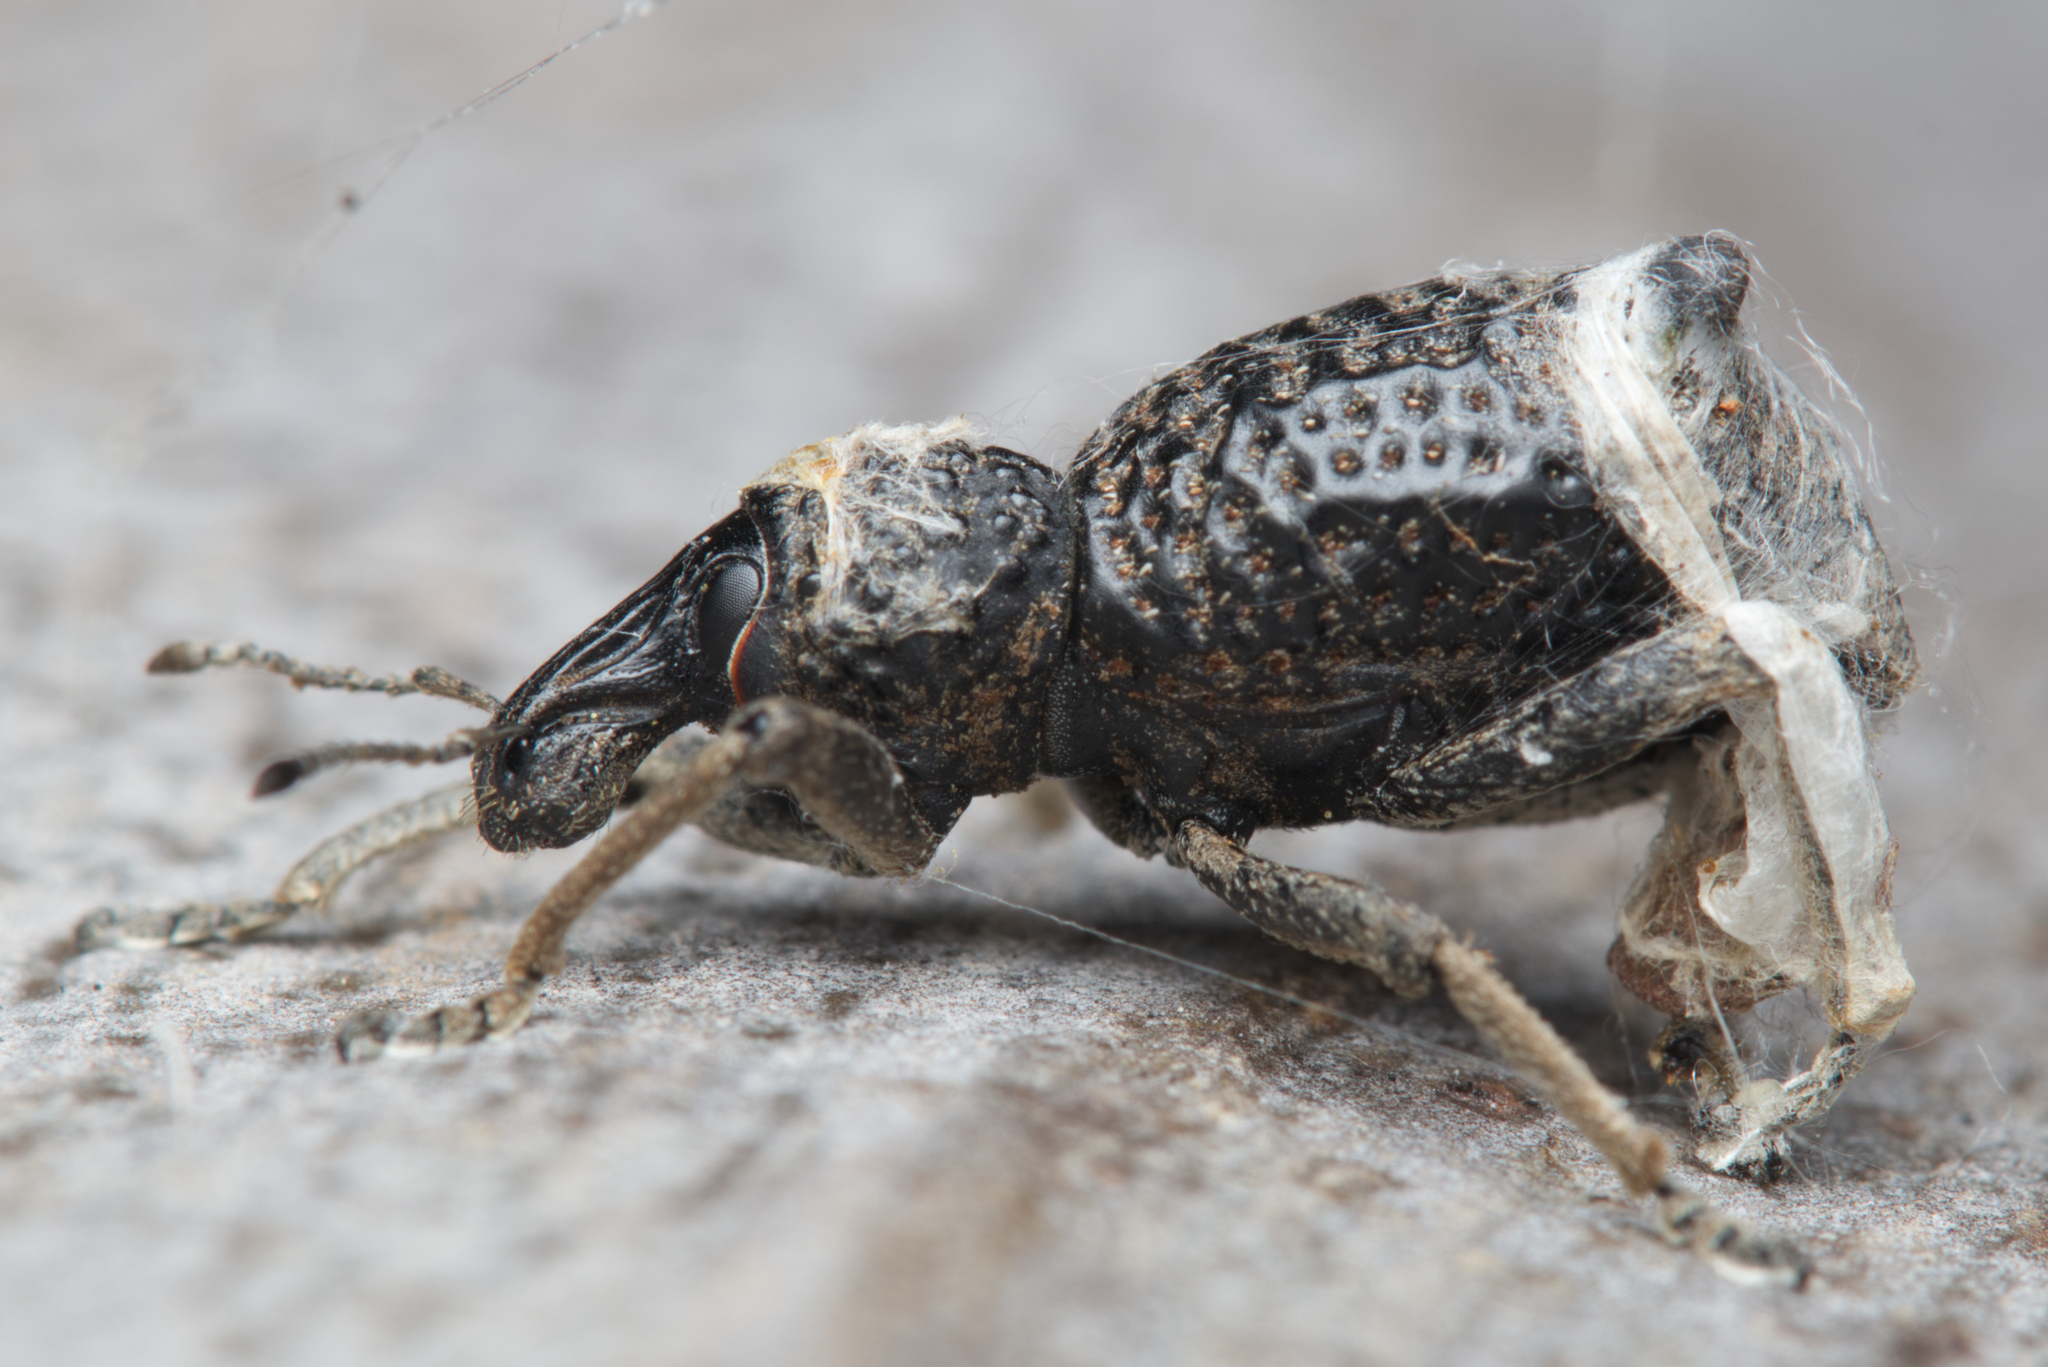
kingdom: Animalia
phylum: Arthropoda
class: Insecta
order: Coleoptera
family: Curculionidae
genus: Zymaus
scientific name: Zymaus binodosus
